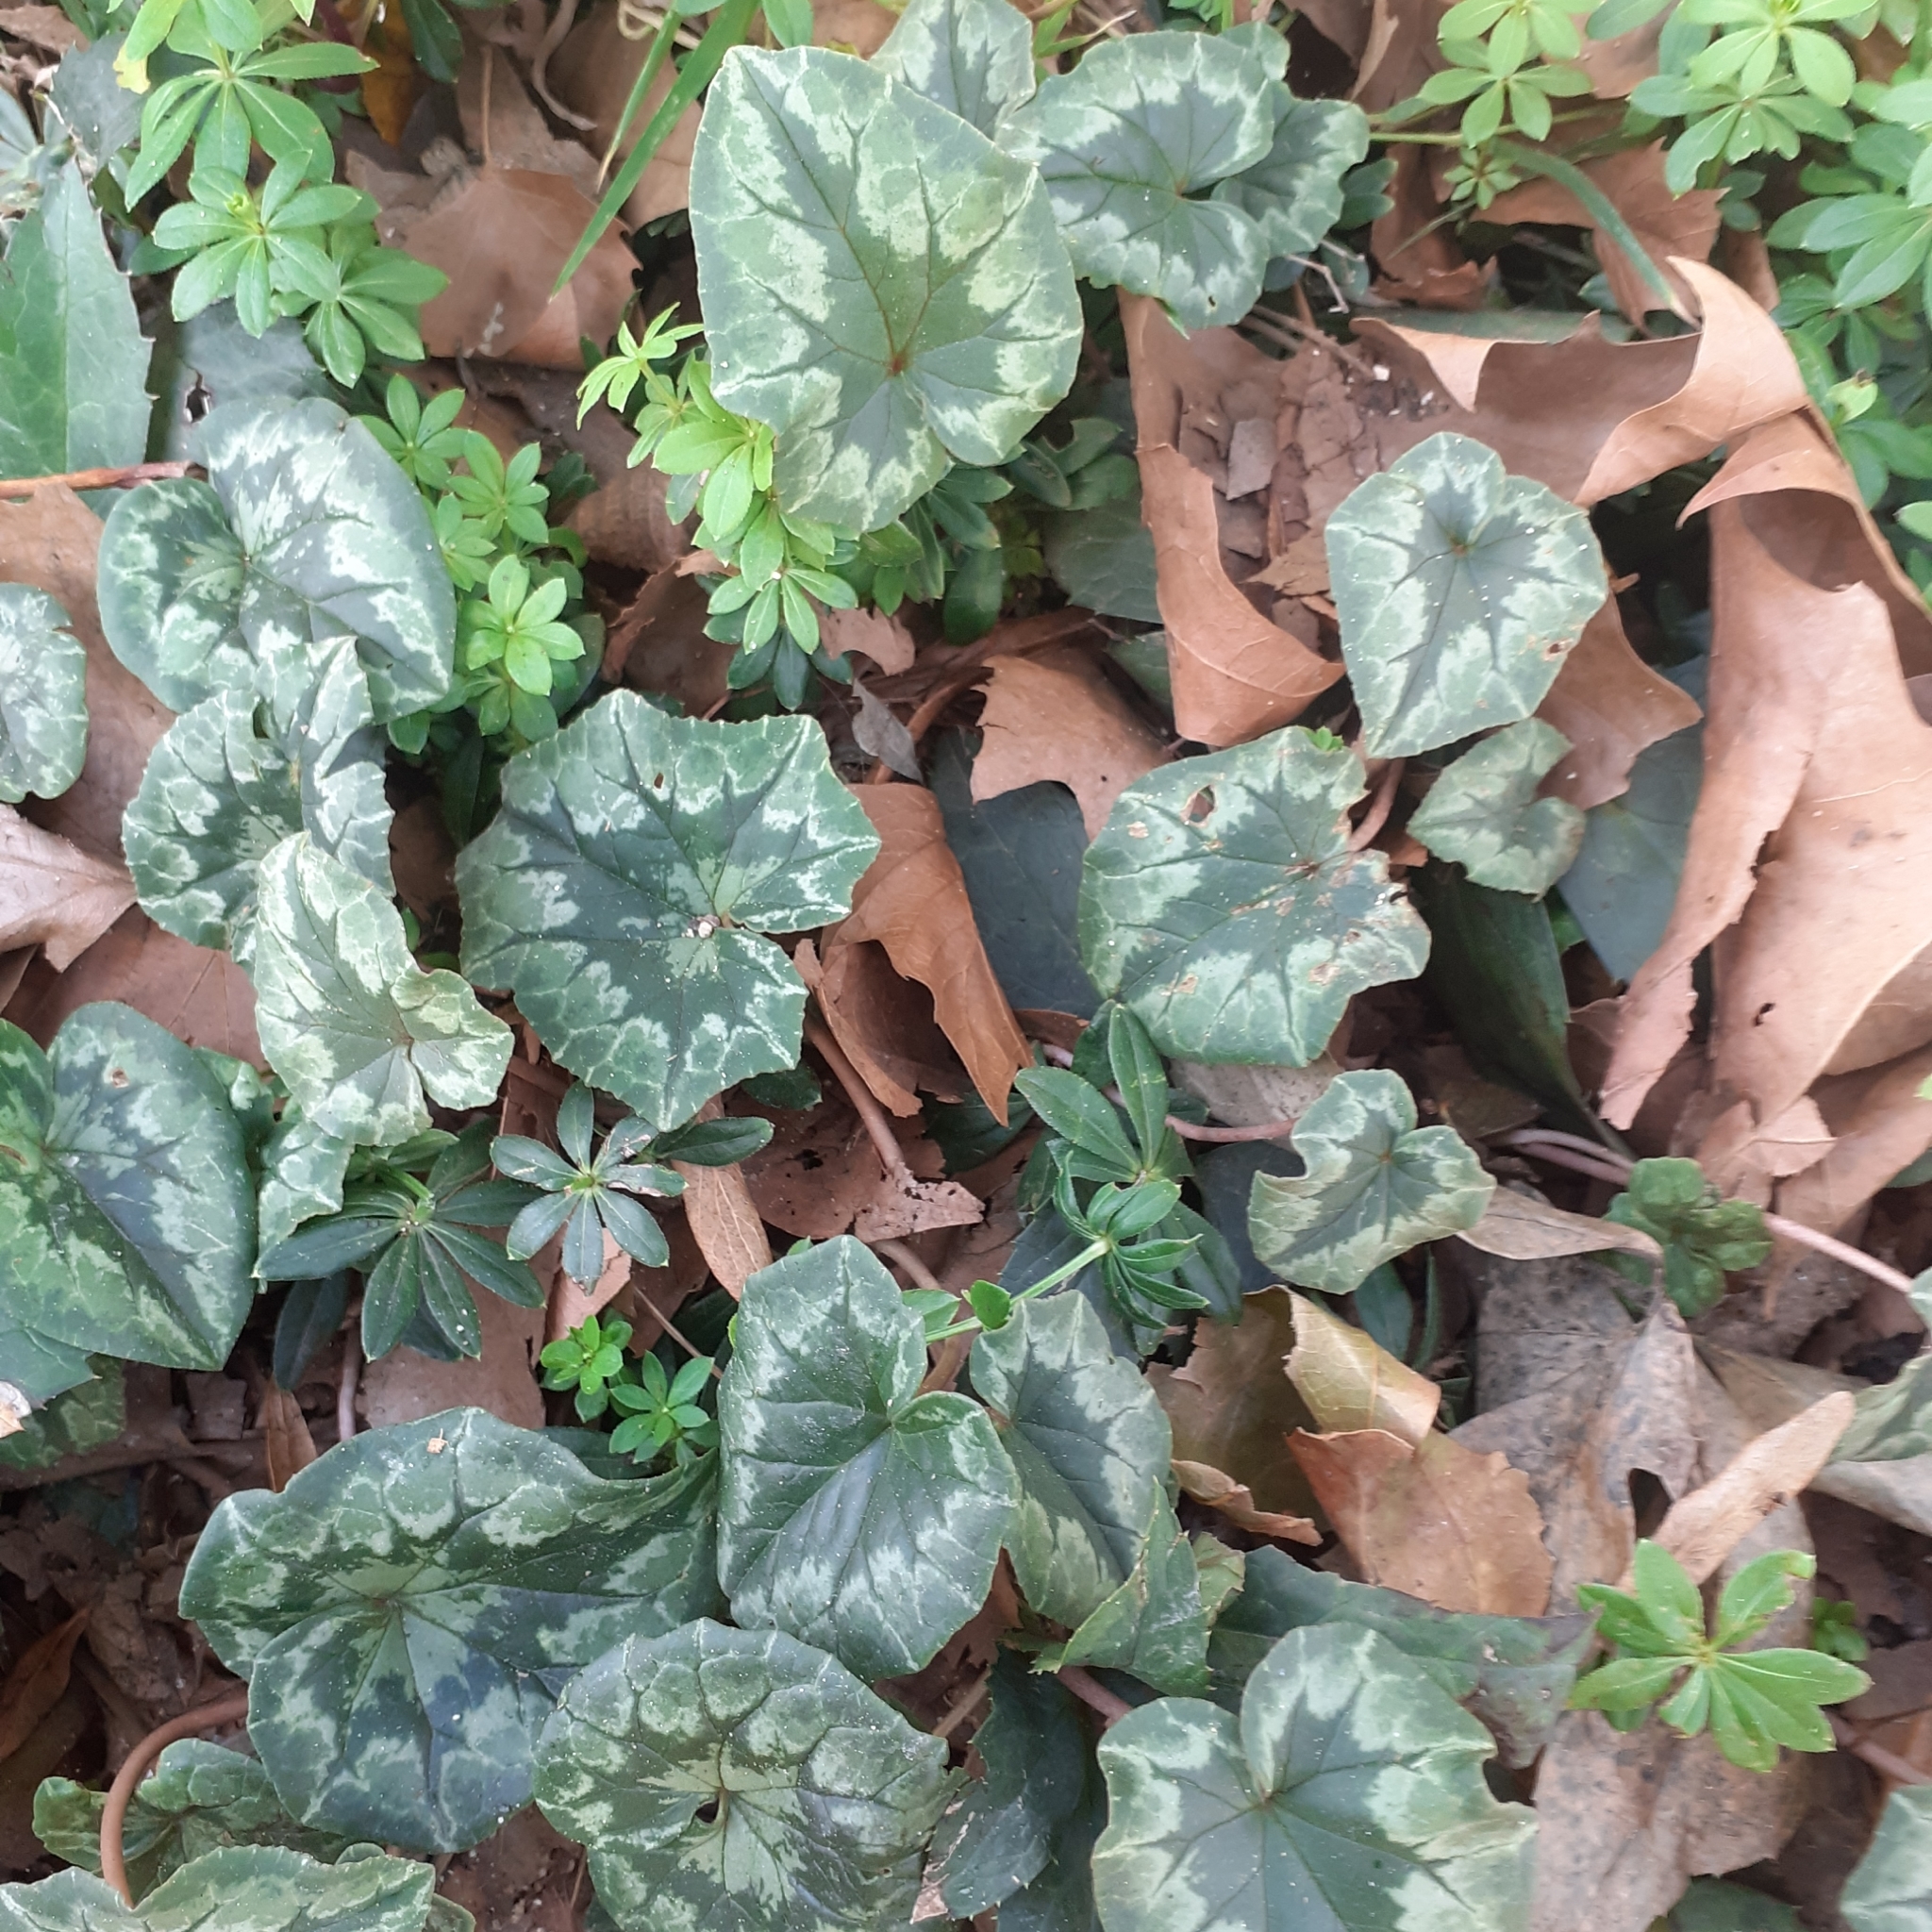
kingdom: Plantae
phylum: Tracheophyta
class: Magnoliopsida
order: Ericales
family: Primulaceae
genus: Cyclamen
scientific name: Cyclamen hederifolium
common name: Sowbread
